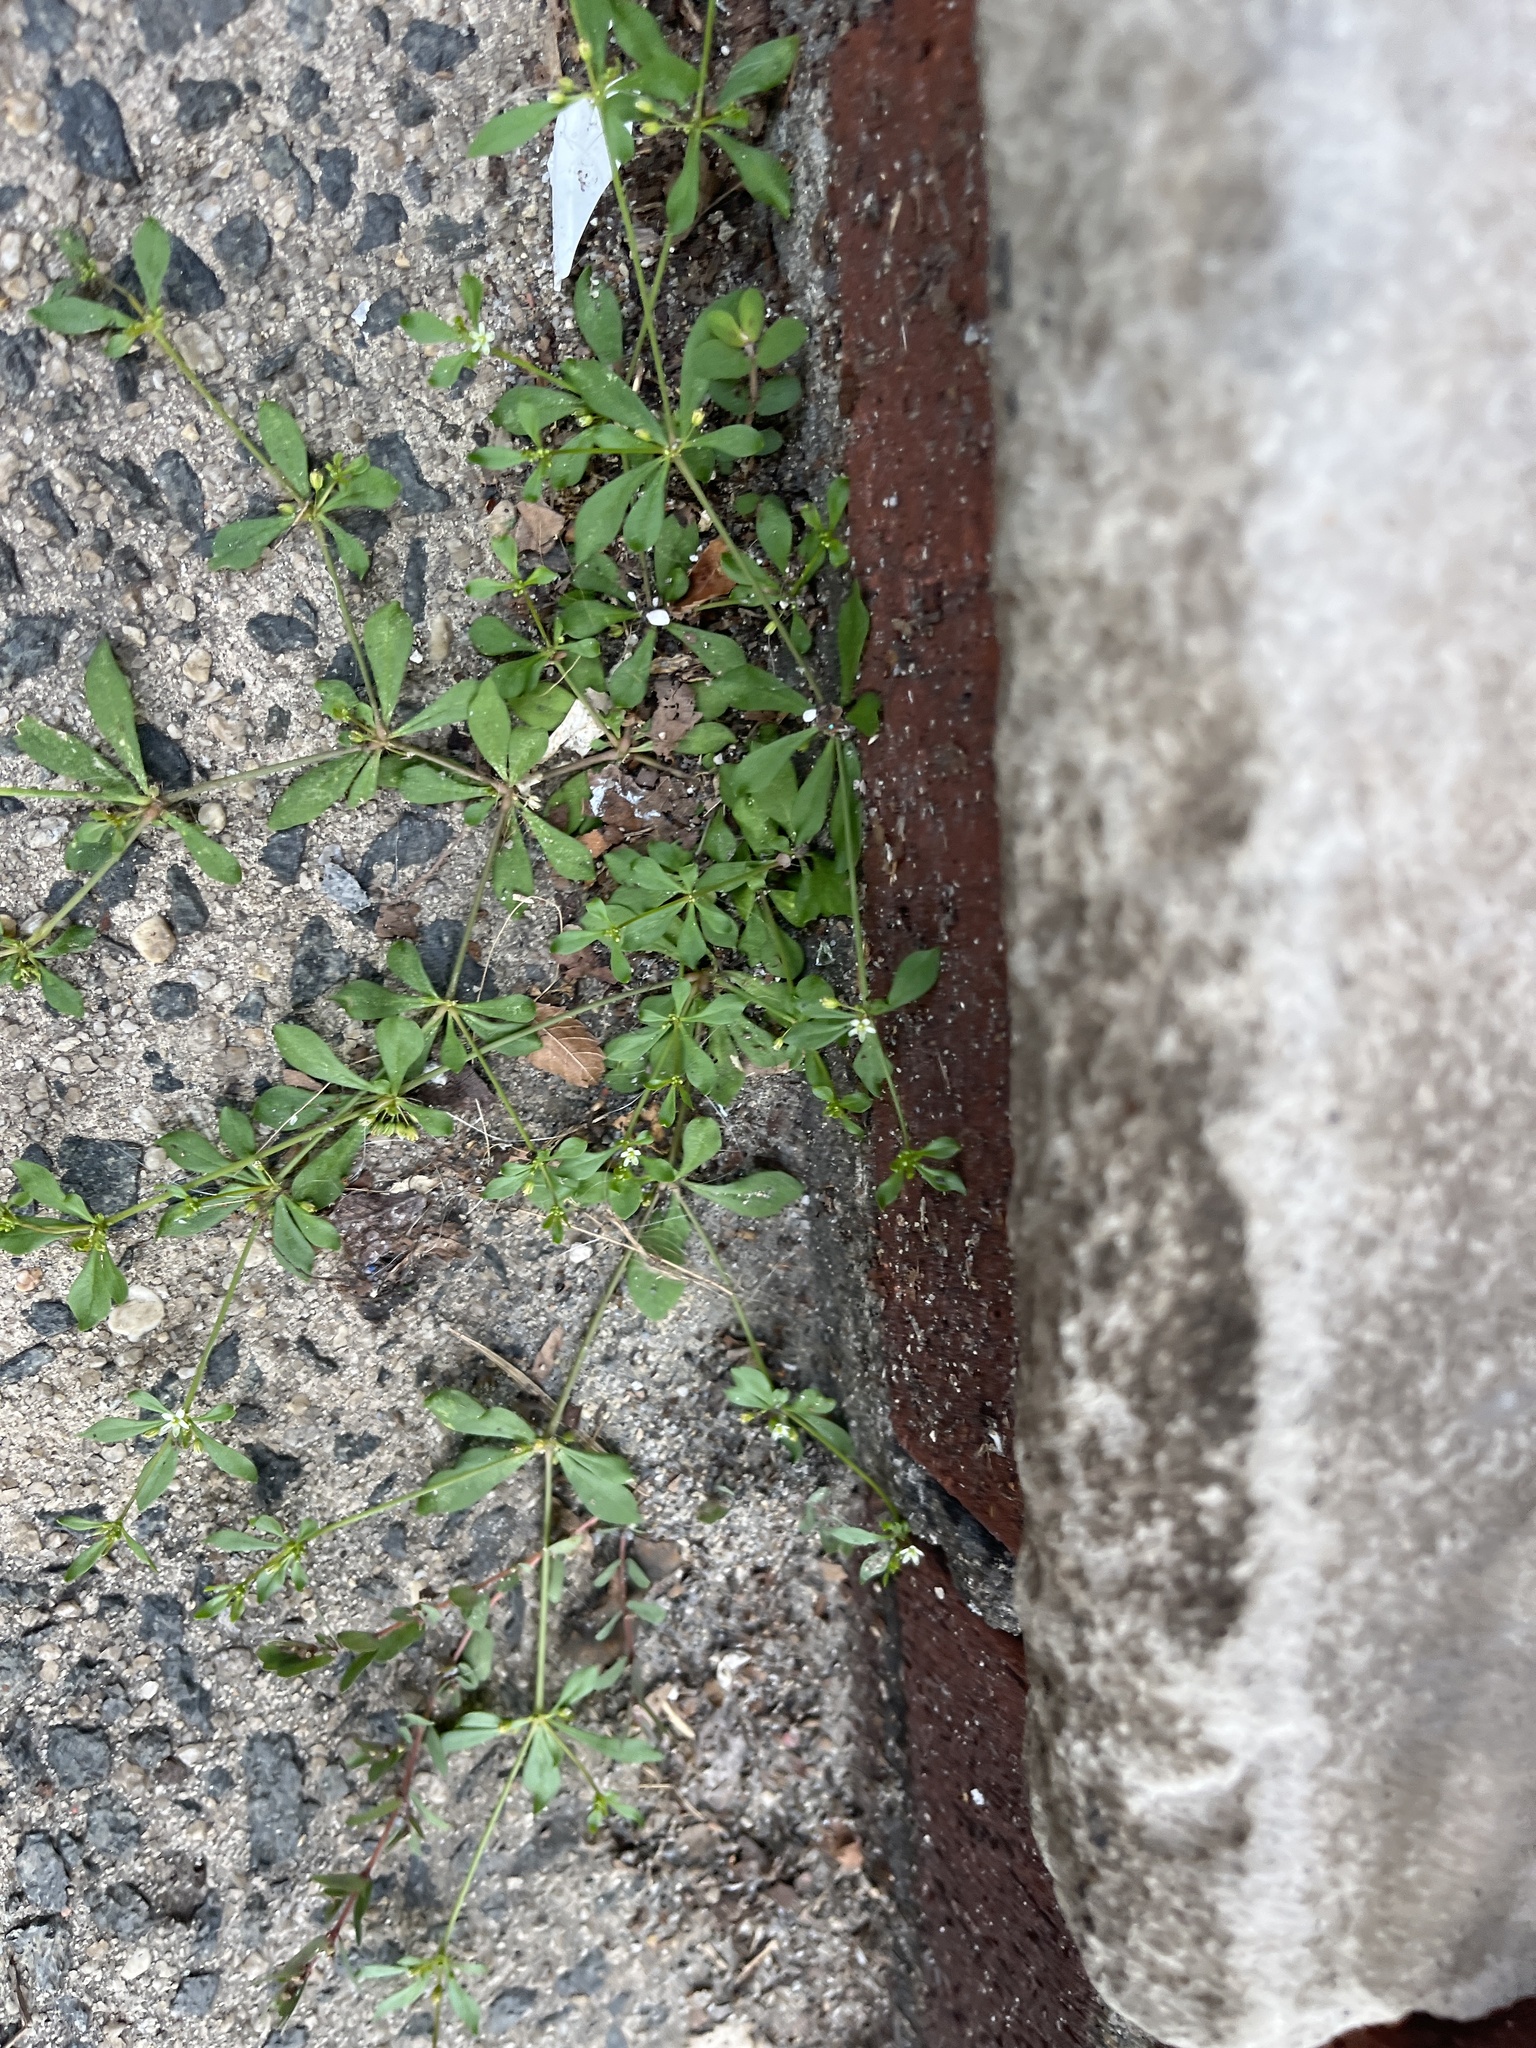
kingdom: Plantae
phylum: Tracheophyta
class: Magnoliopsida
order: Caryophyllales
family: Molluginaceae
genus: Mollugo
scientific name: Mollugo verticillata
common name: Green carpetweed
